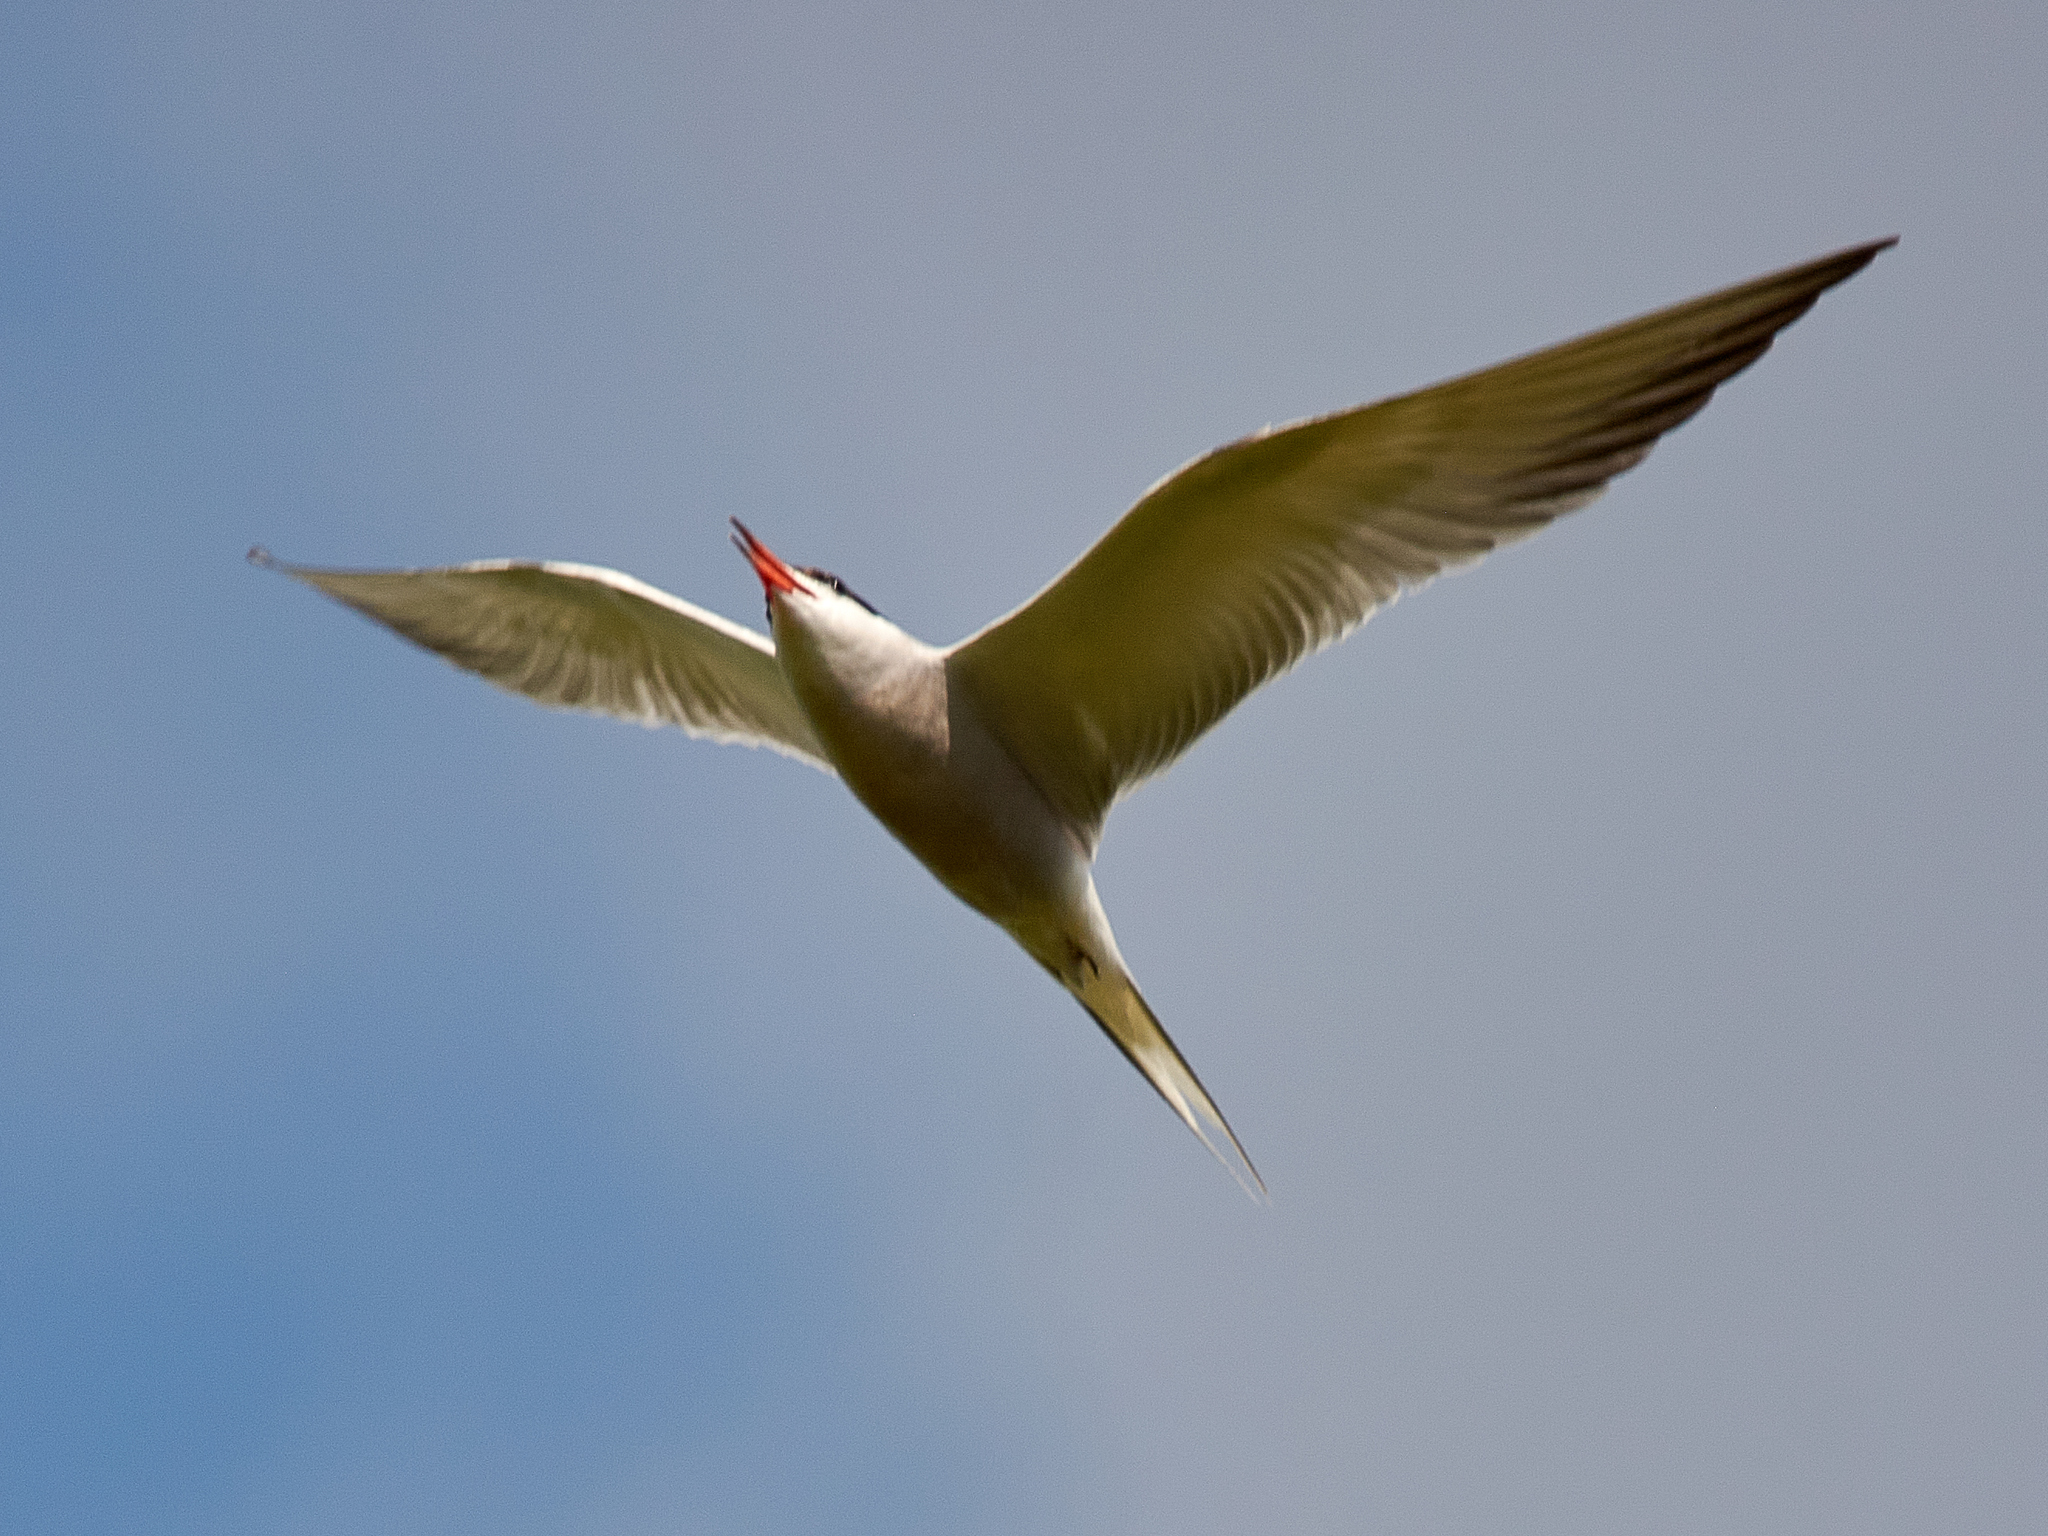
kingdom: Animalia
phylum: Chordata
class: Aves
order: Charadriiformes
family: Laridae
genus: Sterna
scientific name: Sterna hirundo
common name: Common tern
